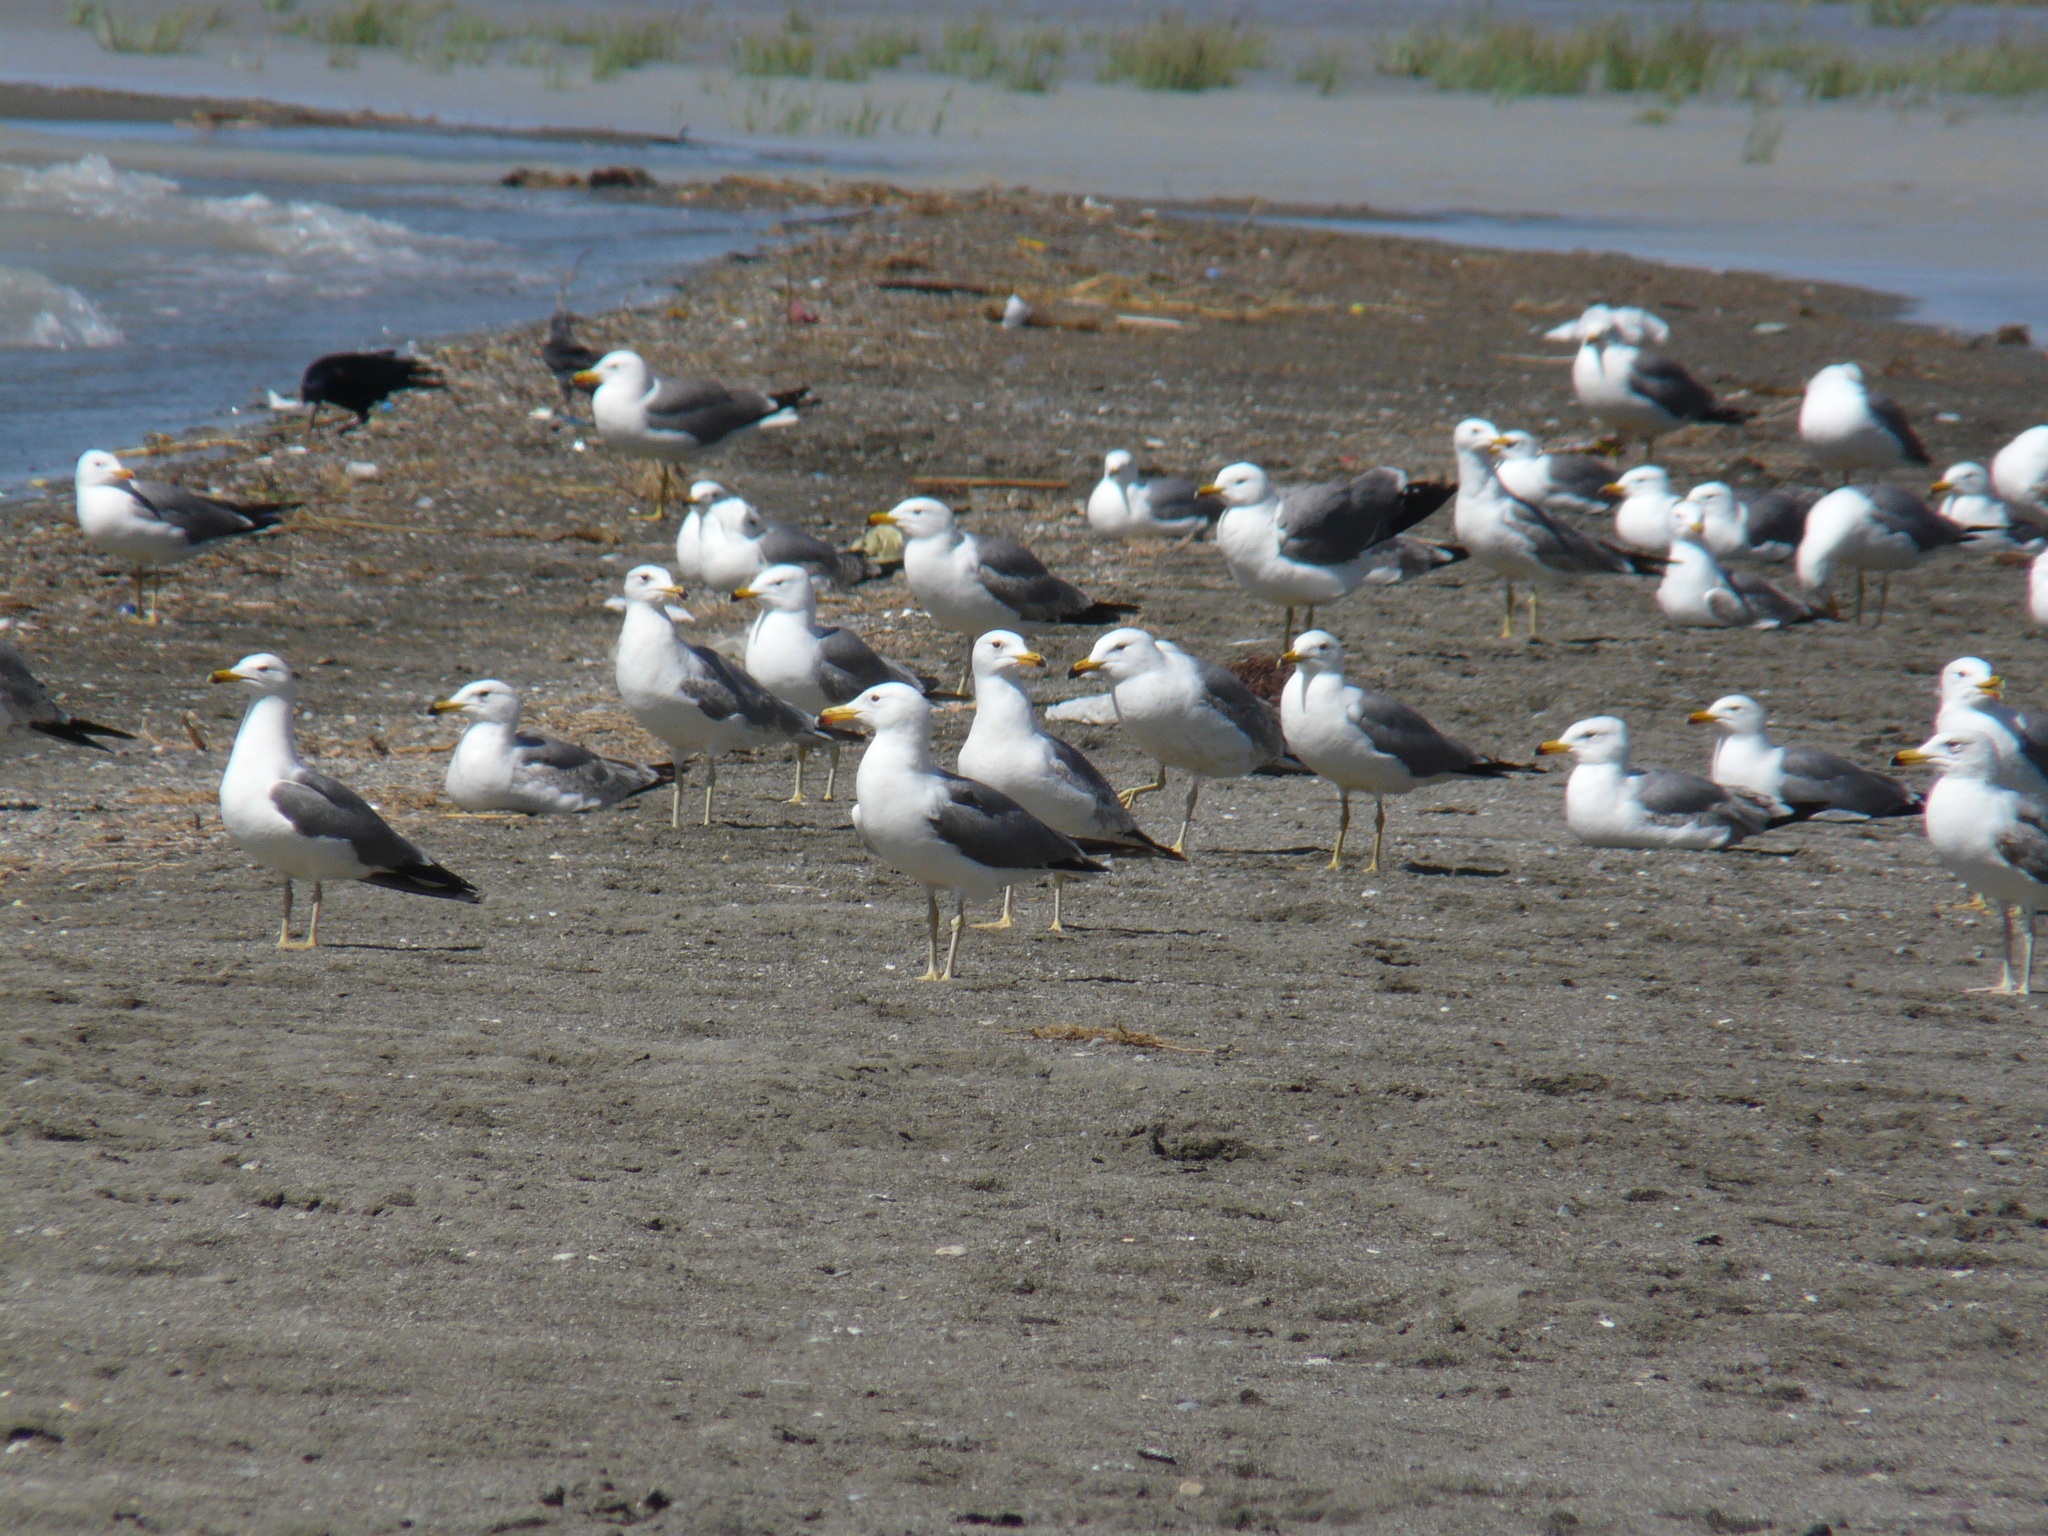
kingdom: Animalia
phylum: Chordata
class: Aves
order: Charadriiformes
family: Laridae
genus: Larus
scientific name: Larus armenicus
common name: Armenian gull
